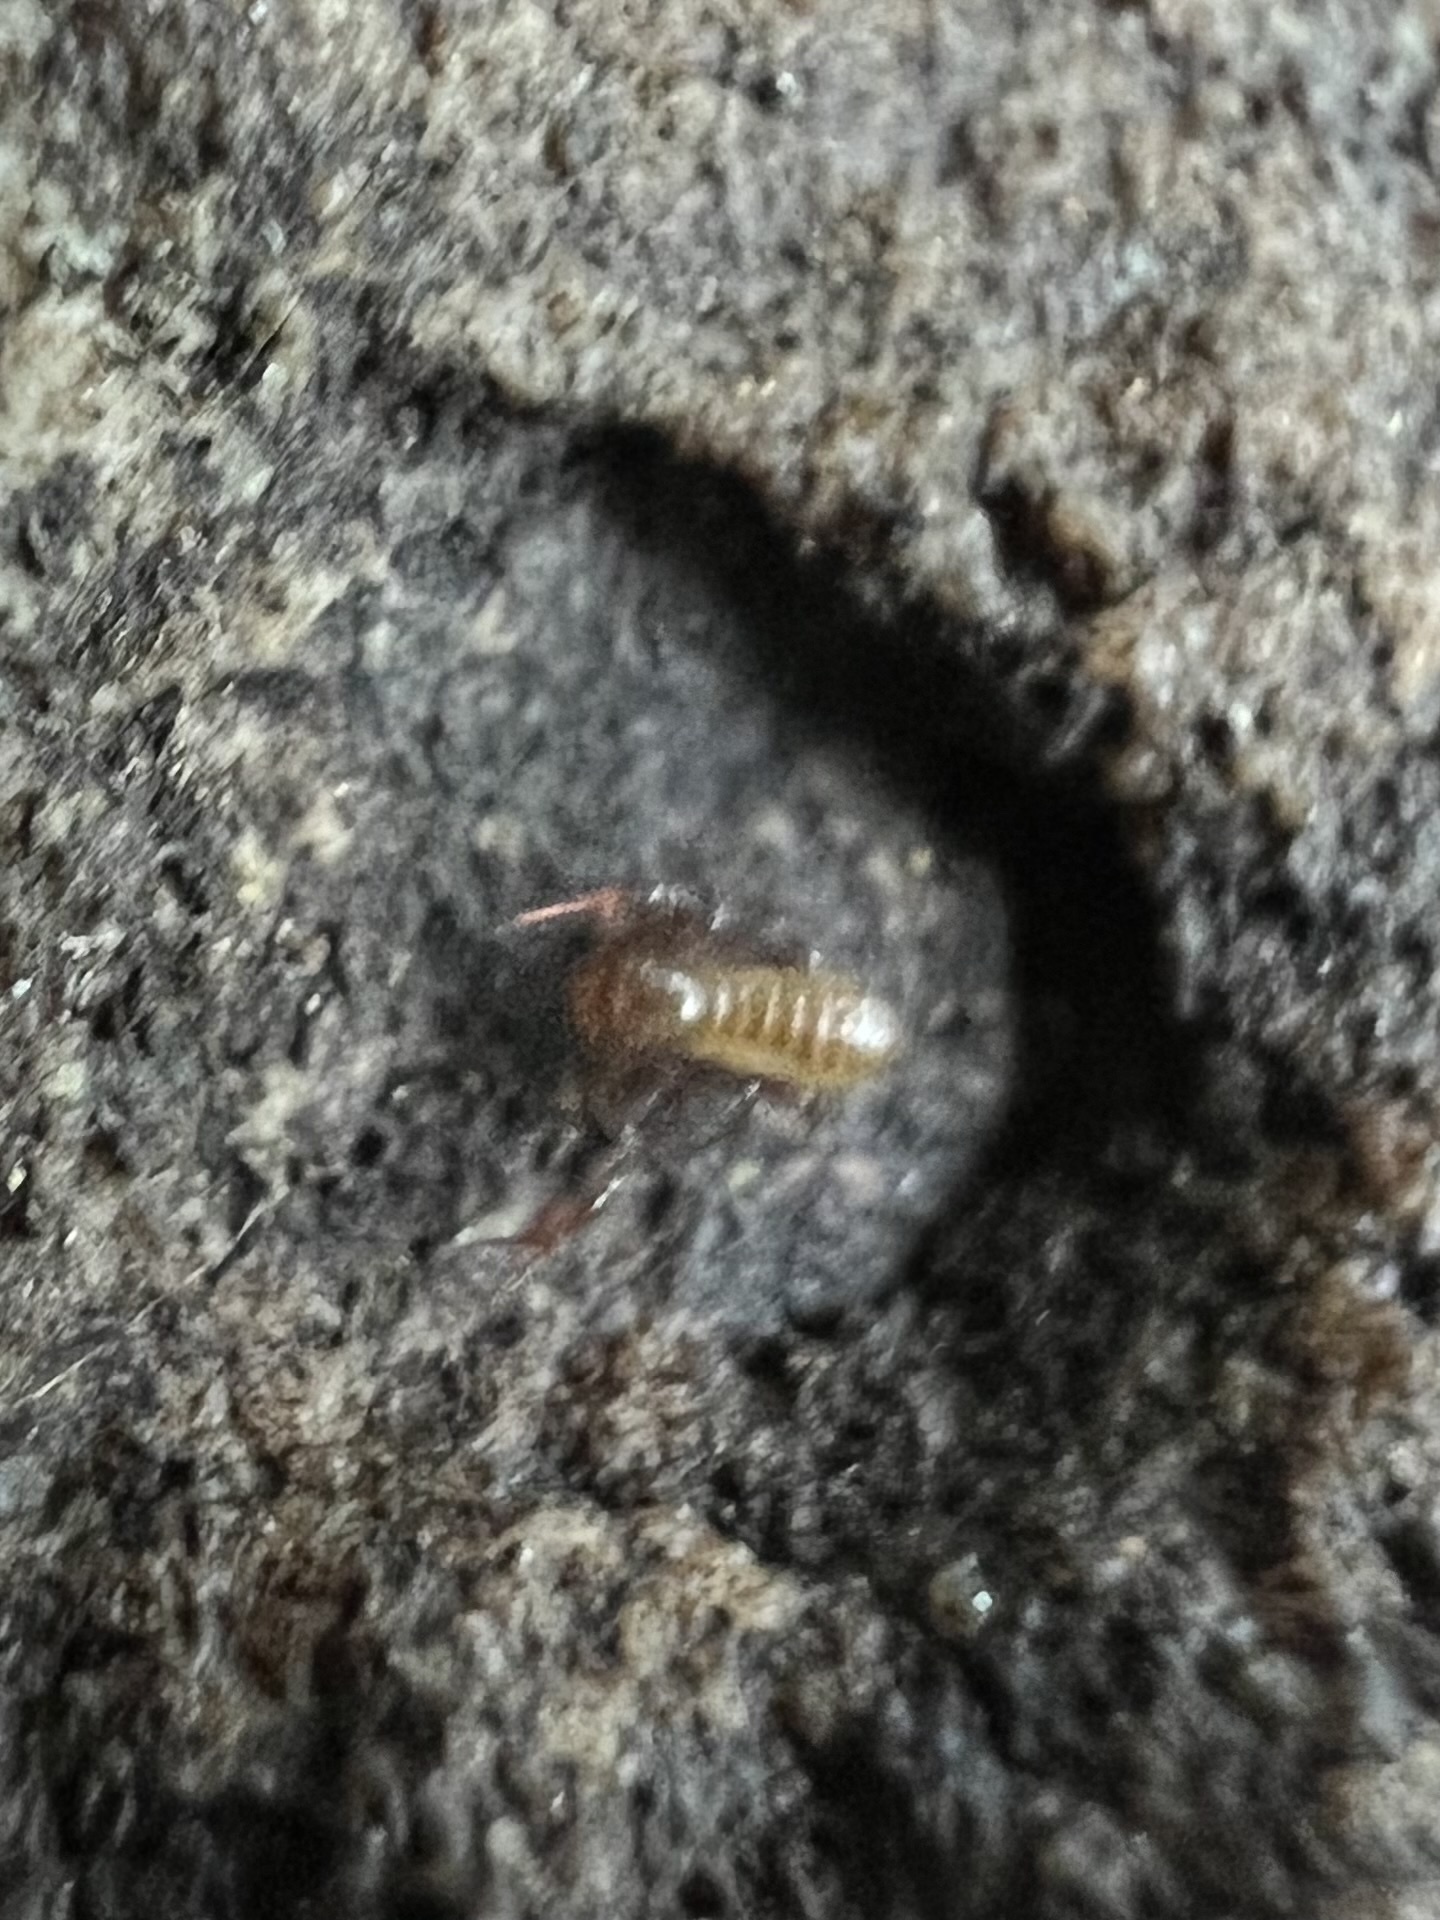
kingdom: Animalia
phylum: Arthropoda
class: Arachnida
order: Pseudoscorpiones
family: Chthoniidae
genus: Chthonius
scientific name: Chthonius paganus
